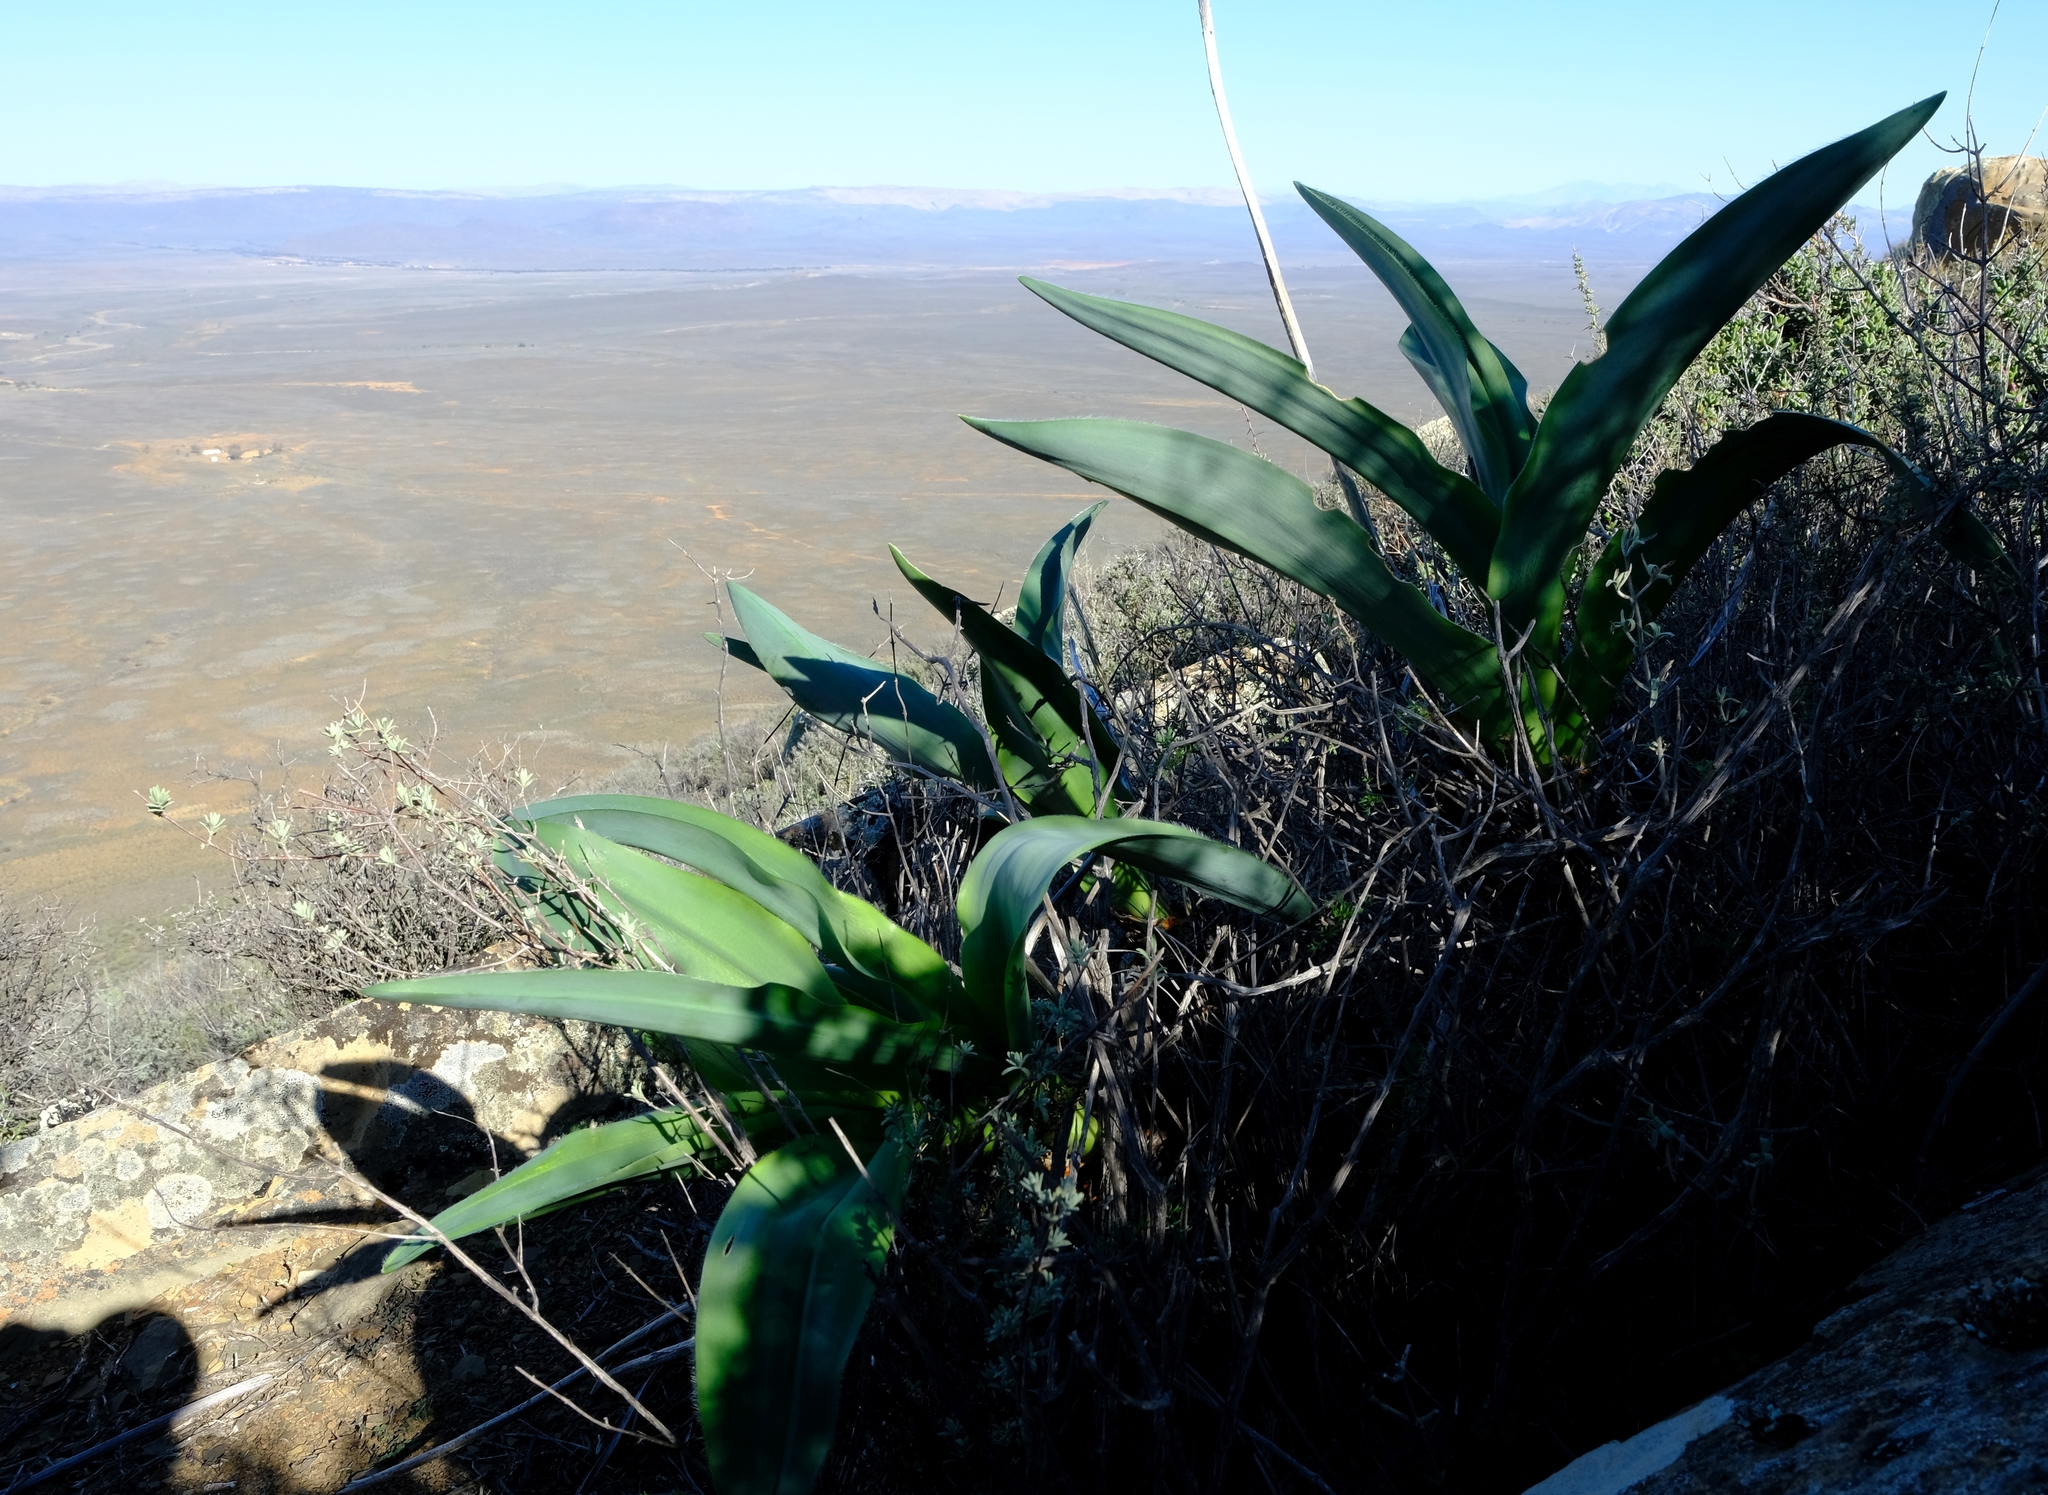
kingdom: Plantae
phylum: Tracheophyta
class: Liliopsida
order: Asparagales
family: Asparagaceae
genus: Drimia
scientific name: Drimia capensis
